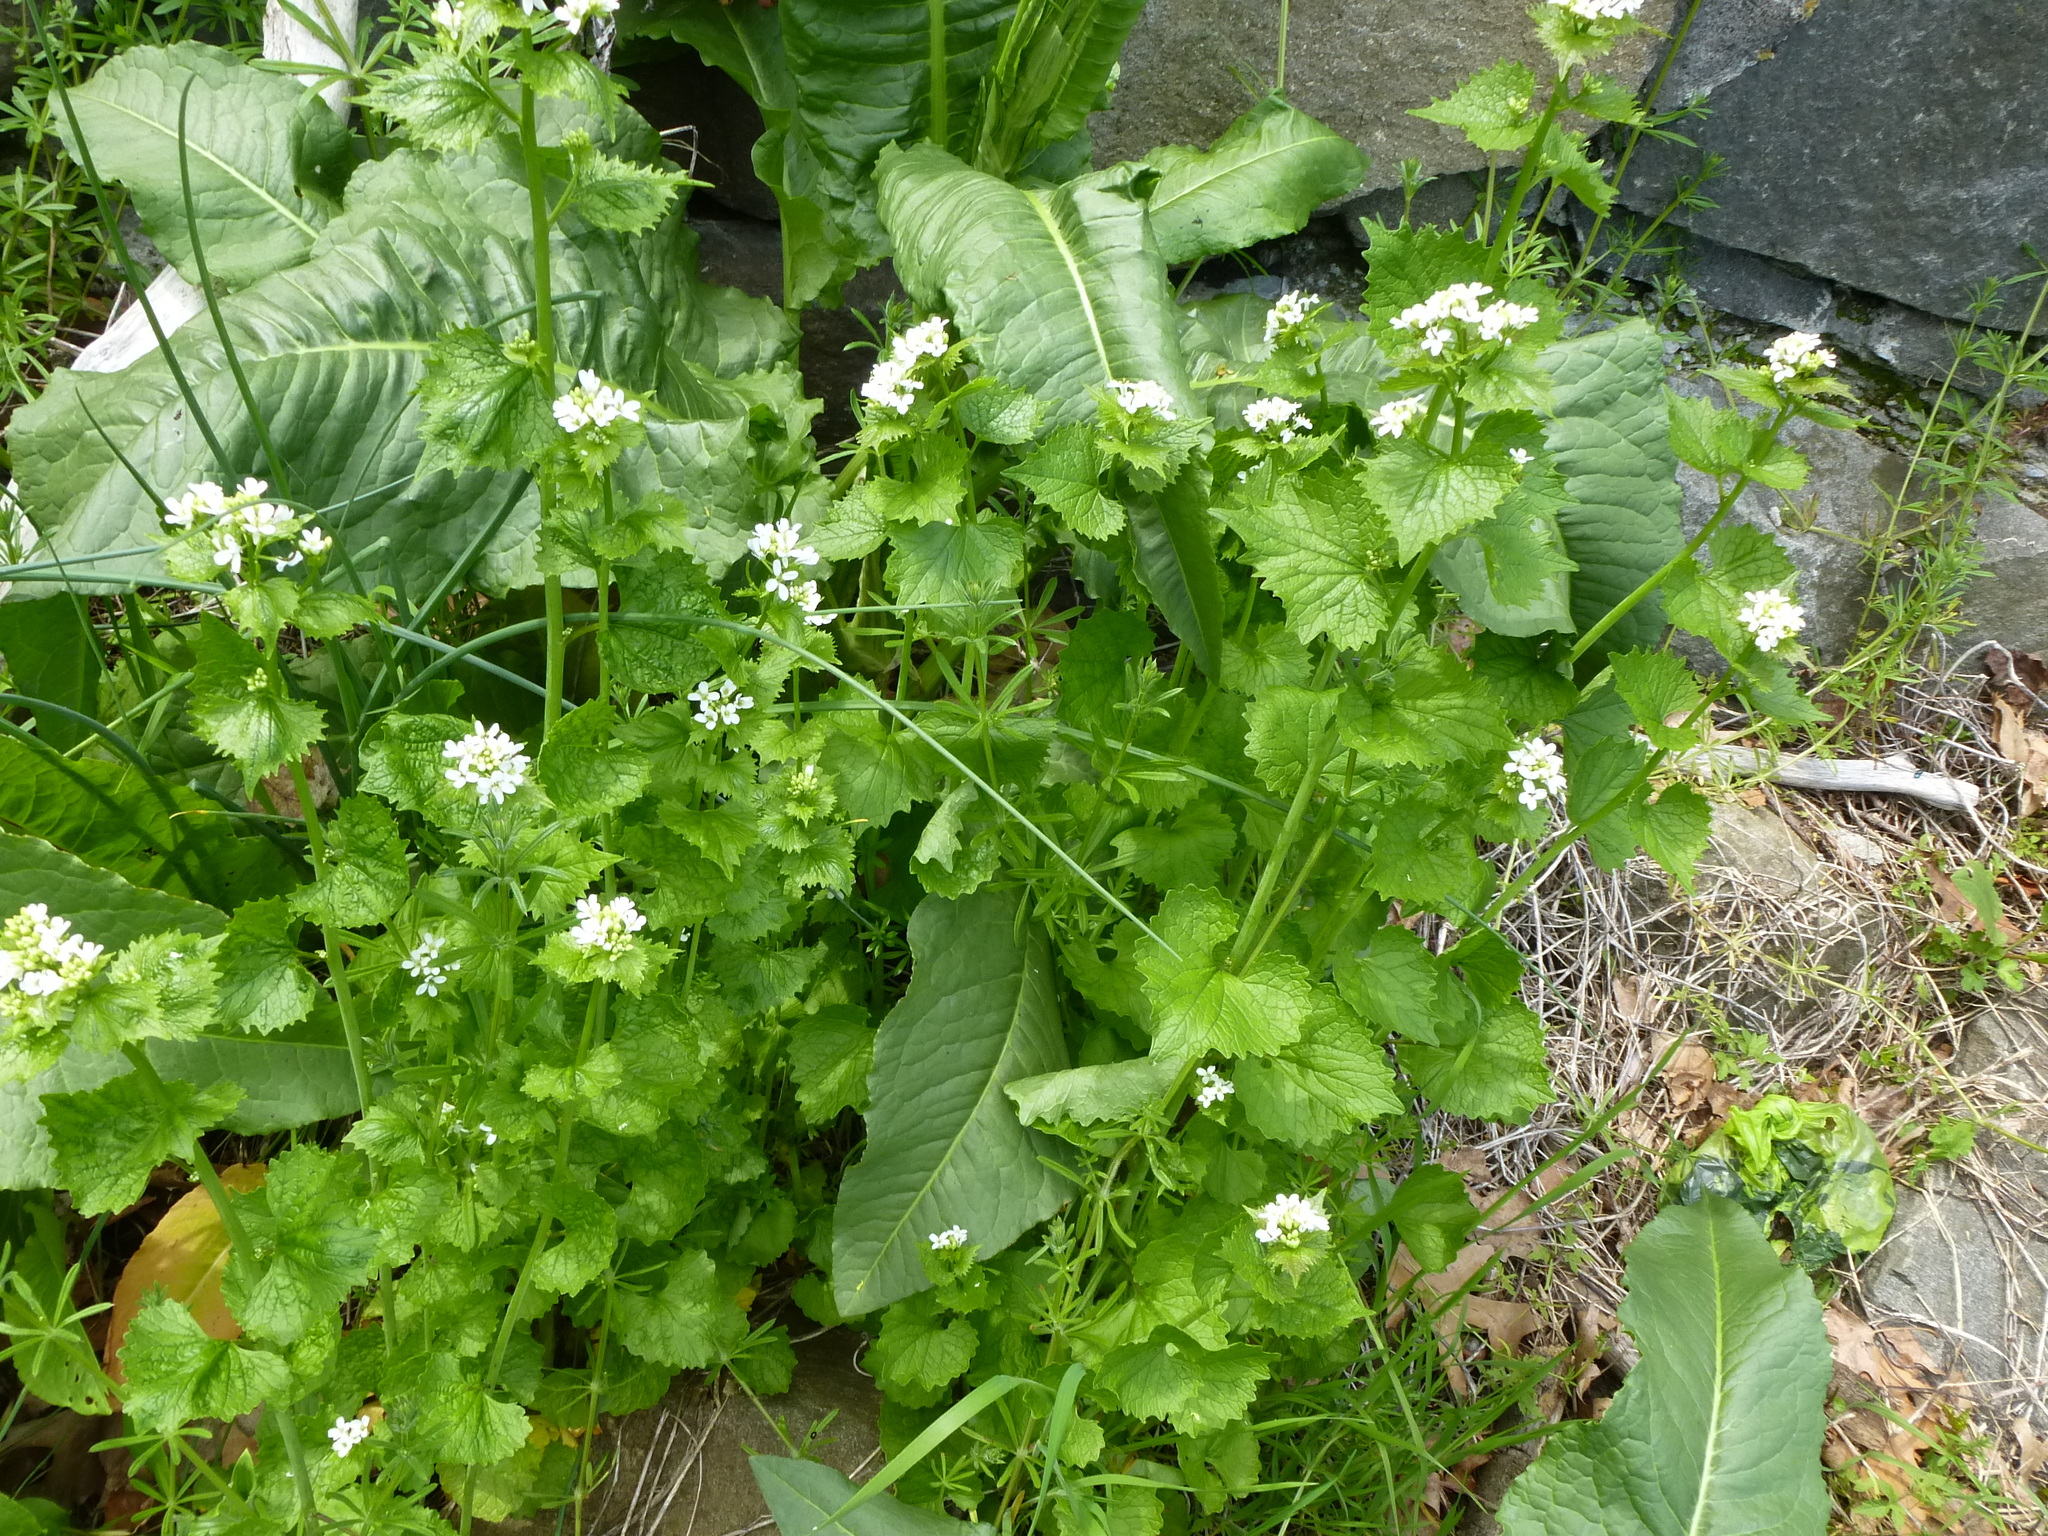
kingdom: Plantae
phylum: Tracheophyta
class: Magnoliopsida
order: Brassicales
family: Brassicaceae
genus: Alliaria
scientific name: Alliaria petiolata
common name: Garlic mustard
